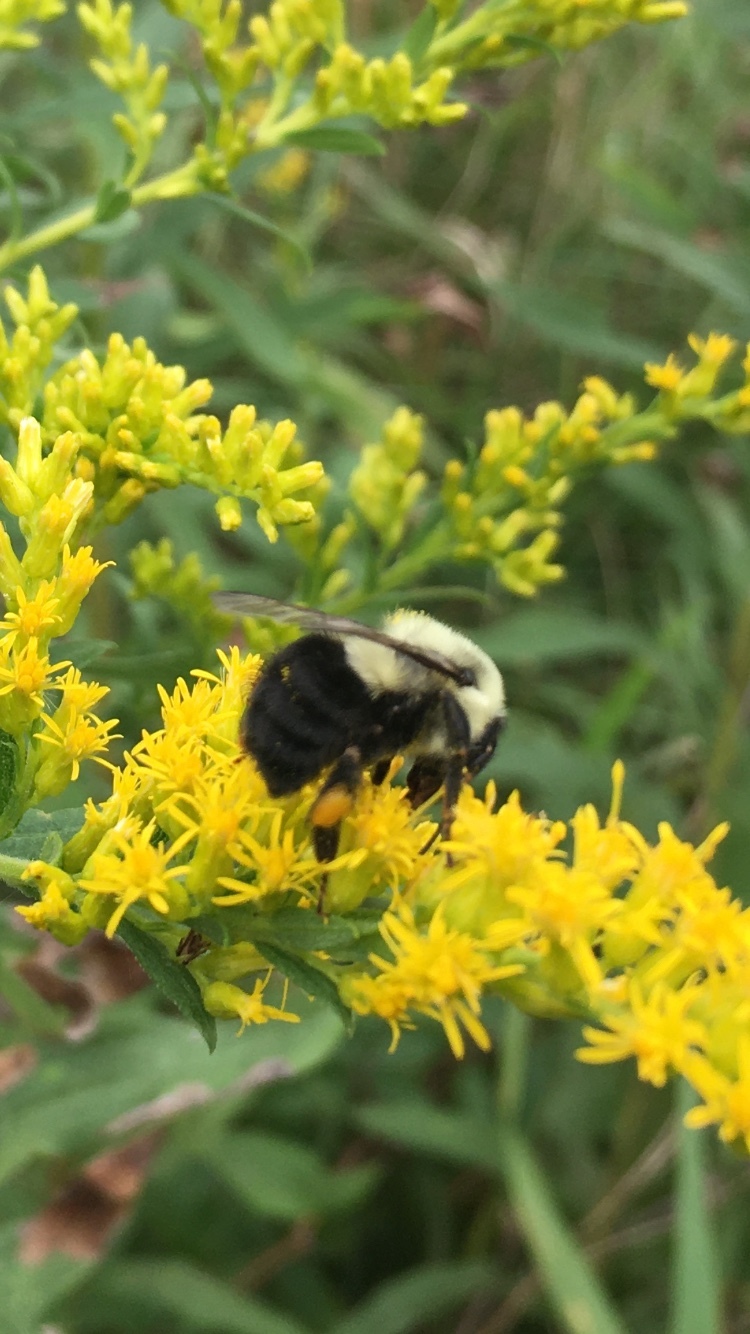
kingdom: Animalia
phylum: Arthropoda
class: Insecta
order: Hymenoptera
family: Apidae
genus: Bombus
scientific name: Bombus impatiens
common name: Common eastern bumble bee
